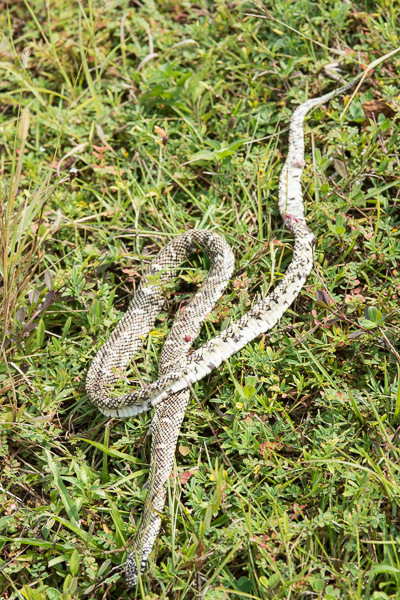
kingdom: Animalia
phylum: Chordata
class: Squamata
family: Colubridae
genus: Lampropeltis
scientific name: Lampropeltis getula
